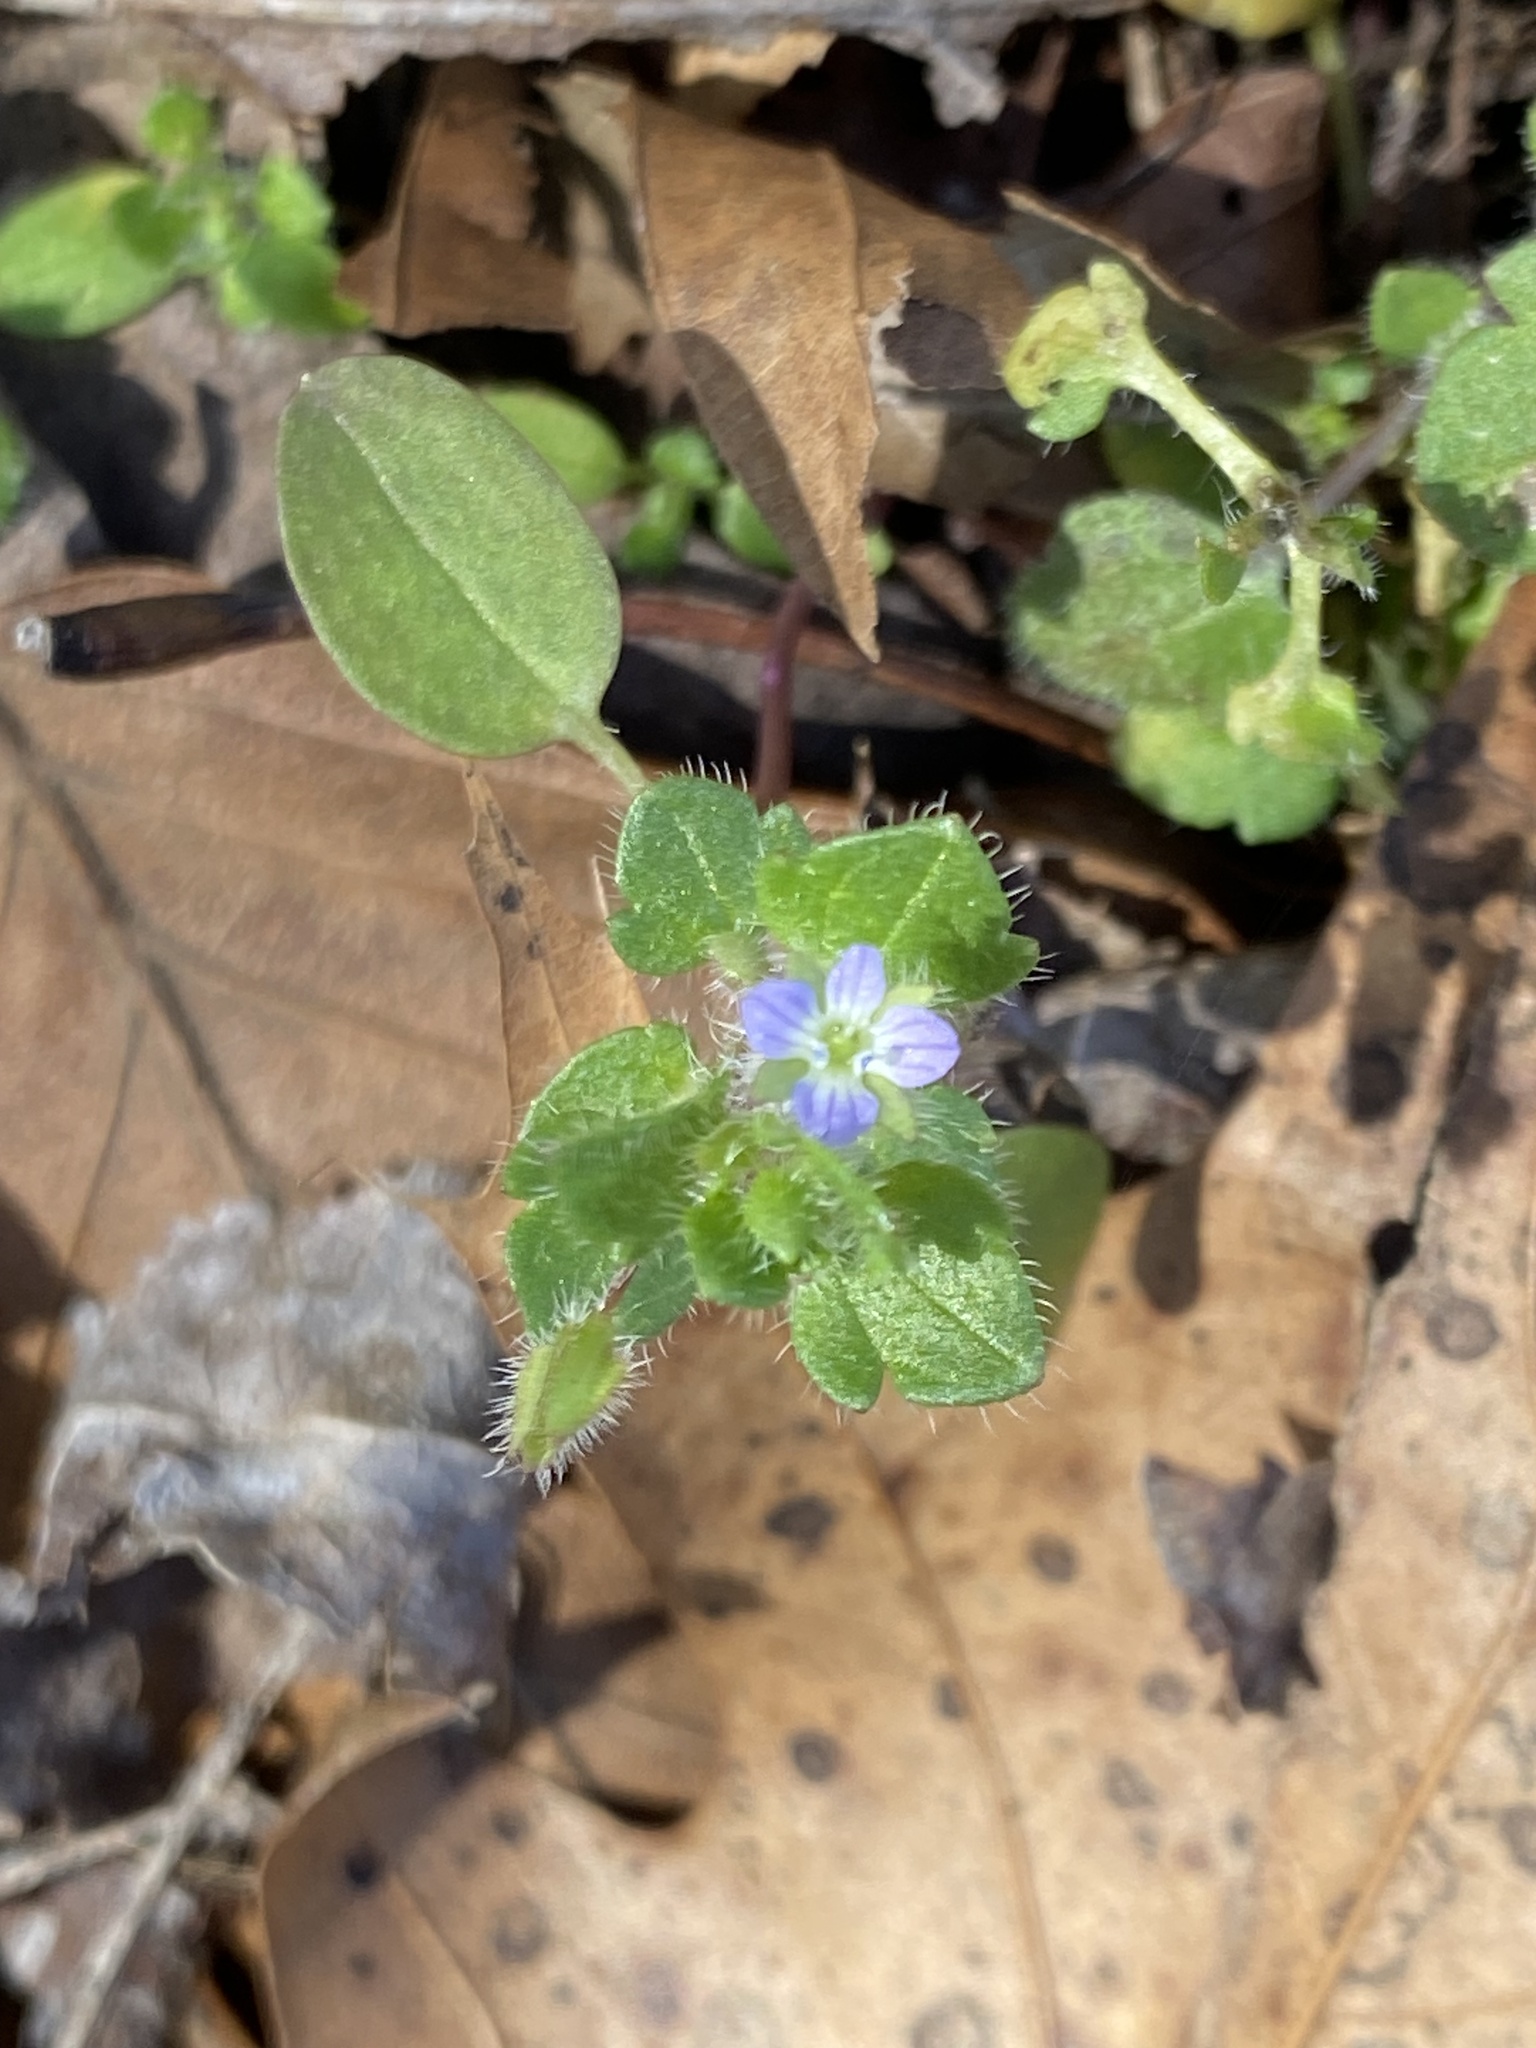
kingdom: Plantae
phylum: Tracheophyta
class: Magnoliopsida
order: Lamiales
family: Plantaginaceae
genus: Veronica
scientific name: Veronica hederifolia
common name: Ivy-leaved speedwell
